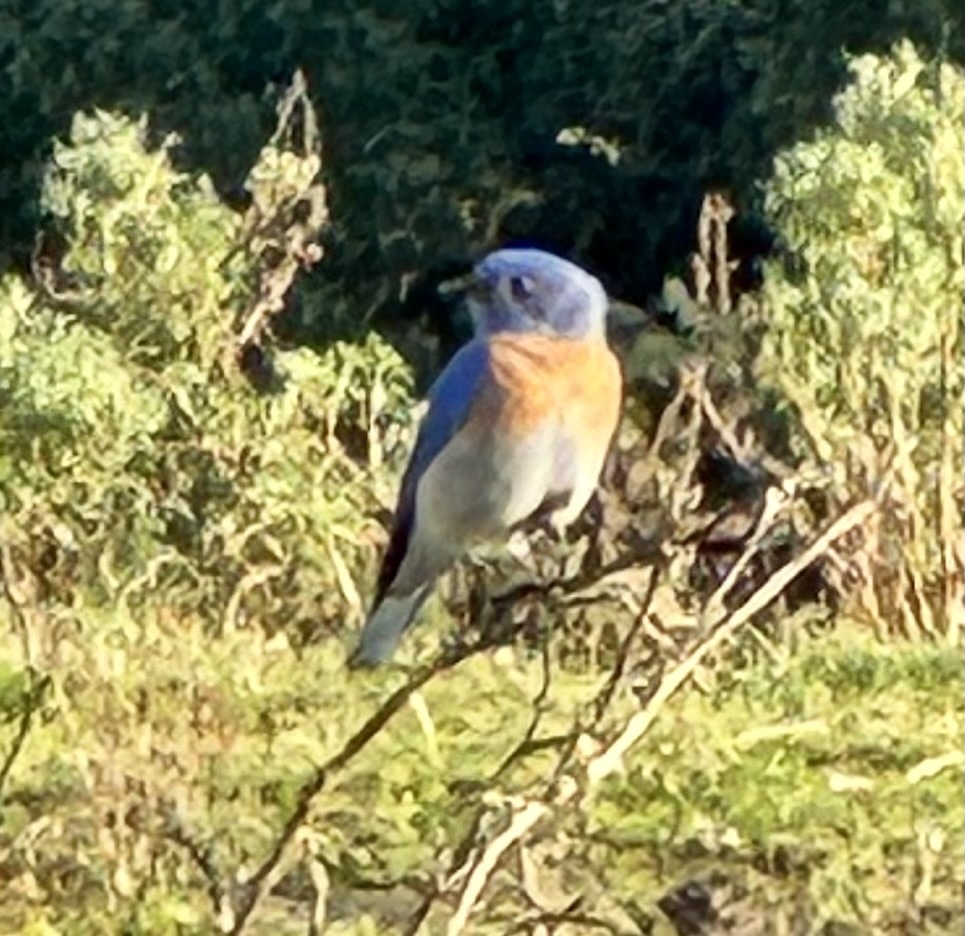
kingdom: Animalia
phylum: Chordata
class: Aves
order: Passeriformes
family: Turdidae
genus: Sialia
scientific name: Sialia mexicana
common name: Western bluebird
